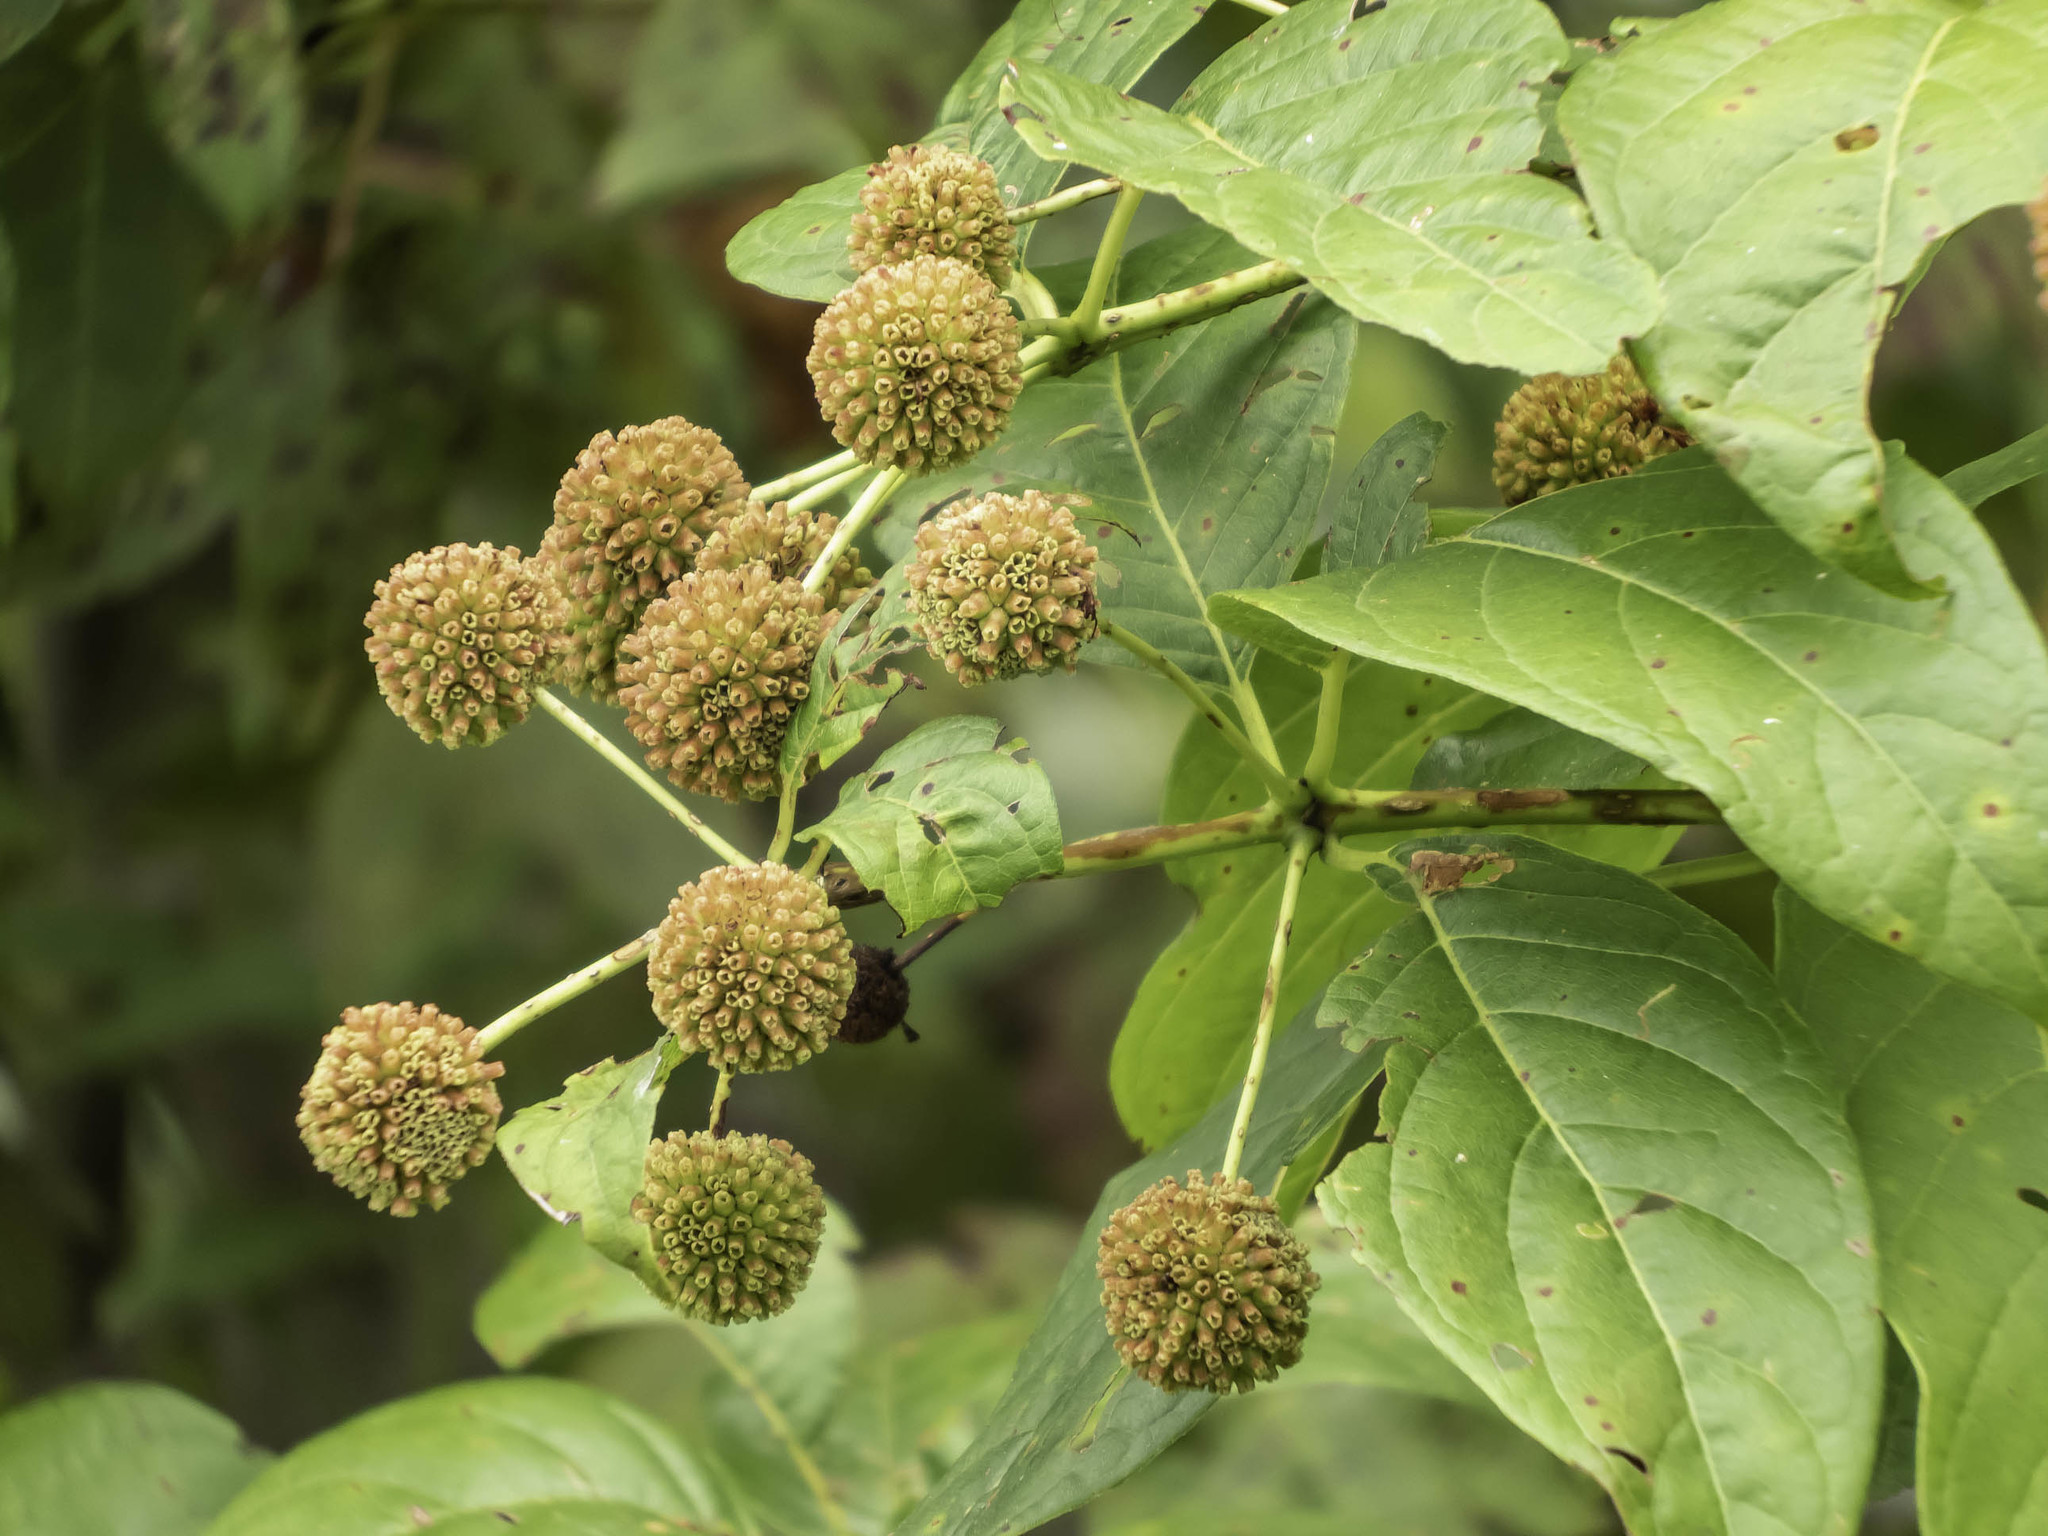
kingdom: Plantae
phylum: Tracheophyta
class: Magnoliopsida
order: Gentianales
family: Rubiaceae
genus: Cephalanthus
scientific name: Cephalanthus occidentalis
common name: Button-willow
